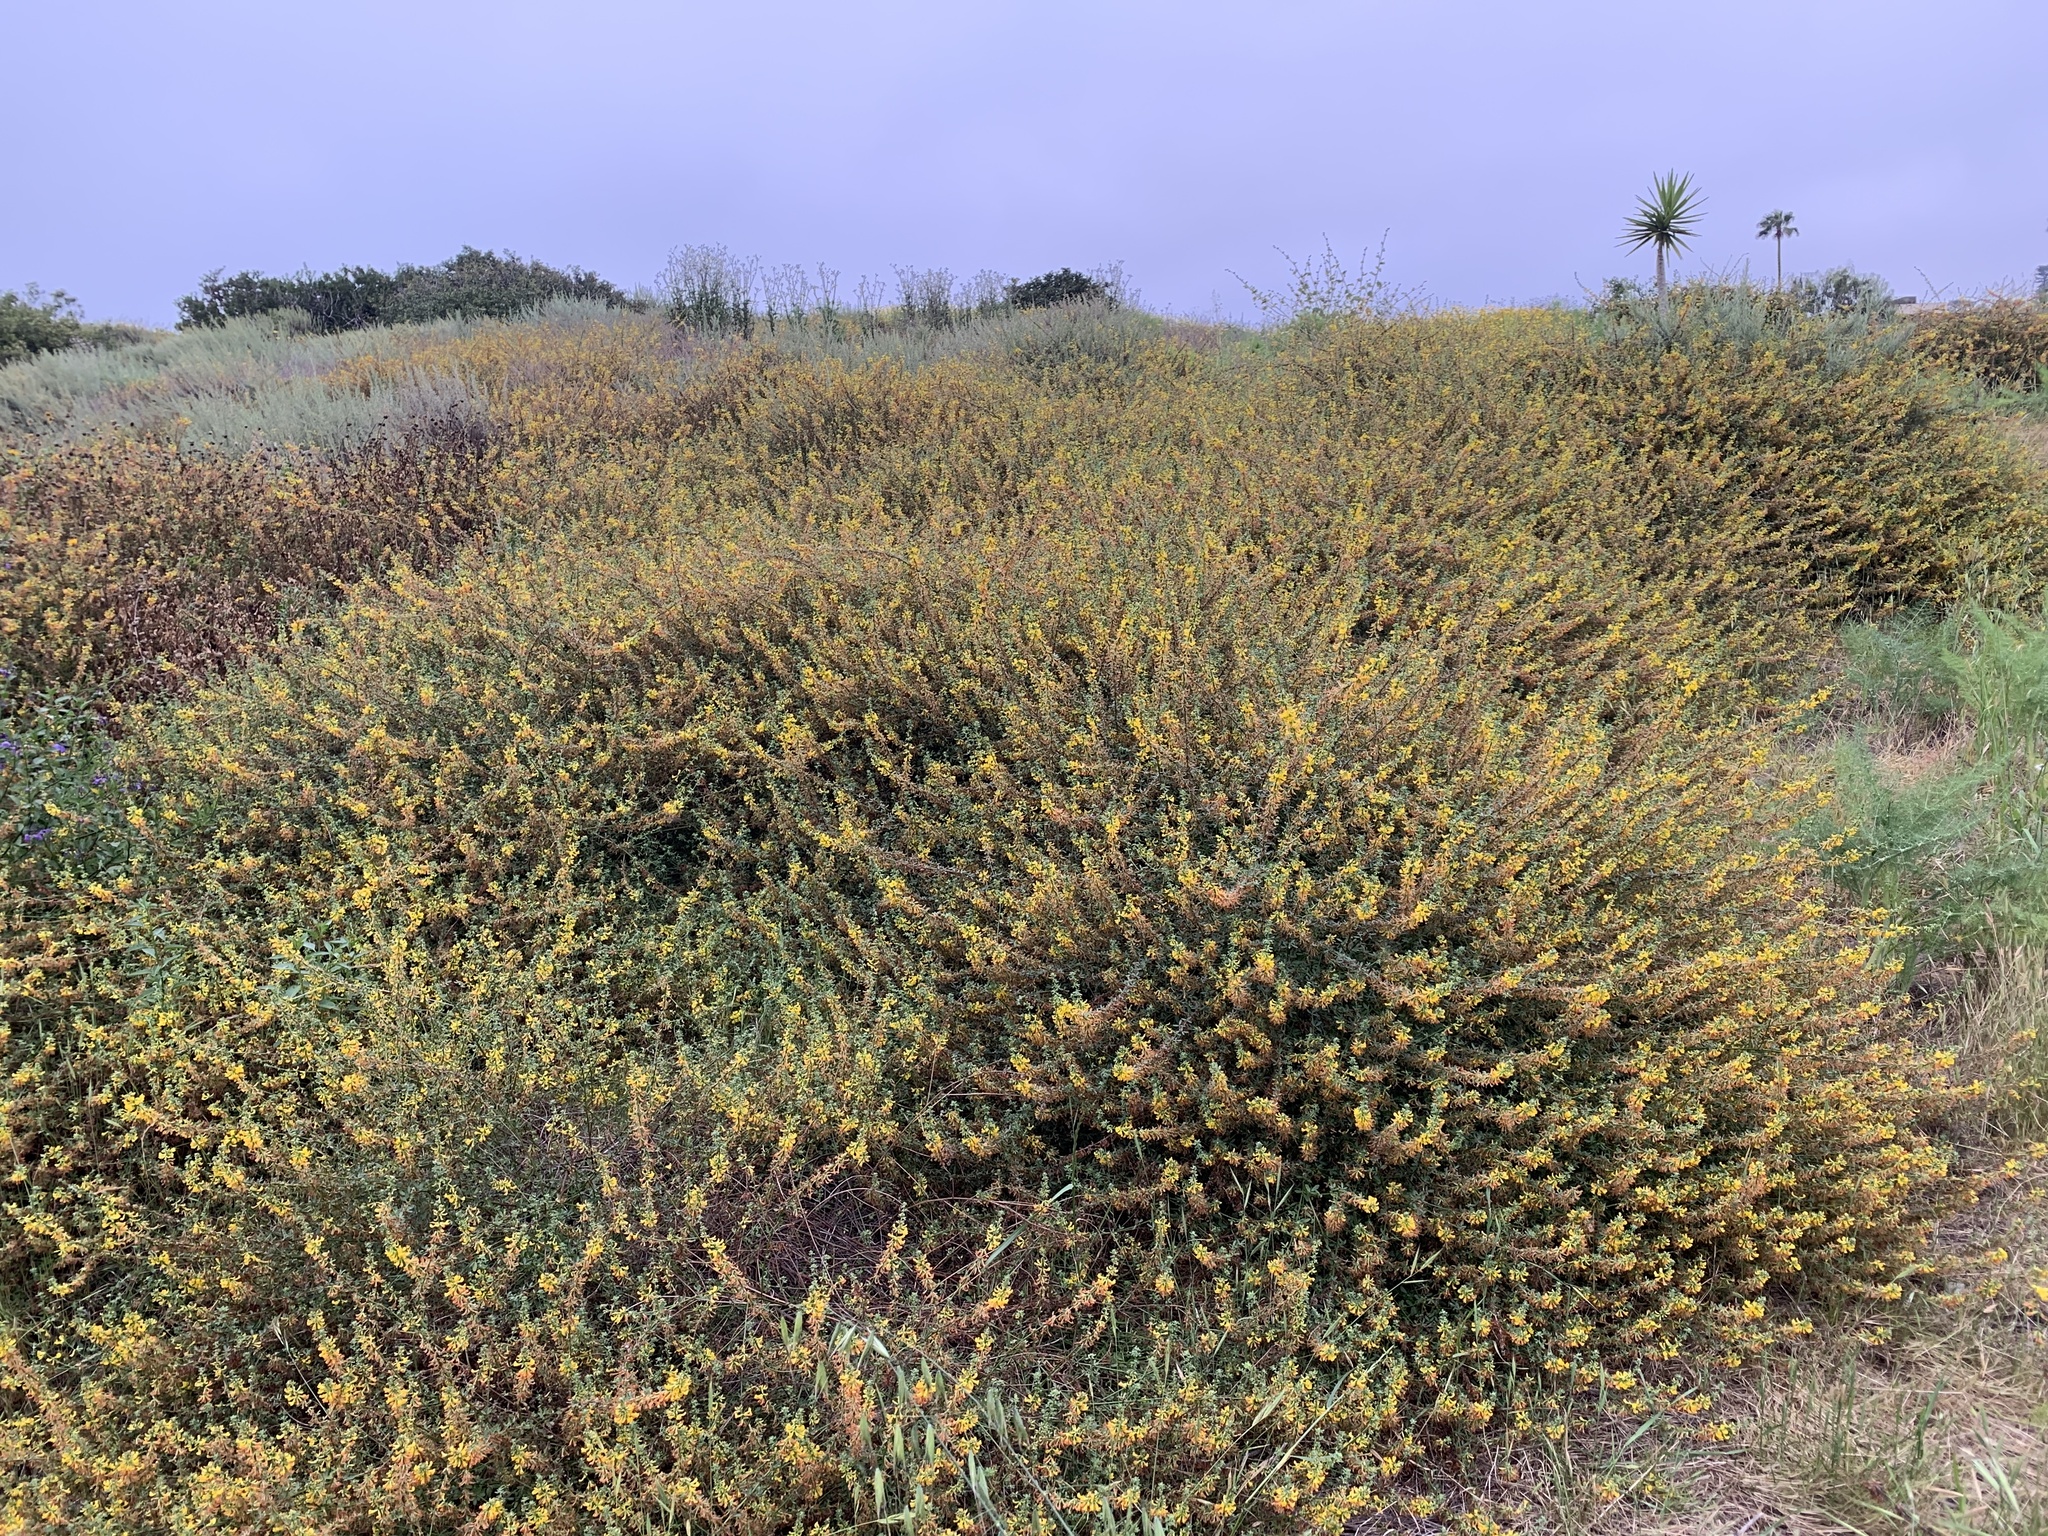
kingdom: Plantae
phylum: Tracheophyta
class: Magnoliopsida
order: Fabales
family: Fabaceae
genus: Acmispon
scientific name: Acmispon glaber
